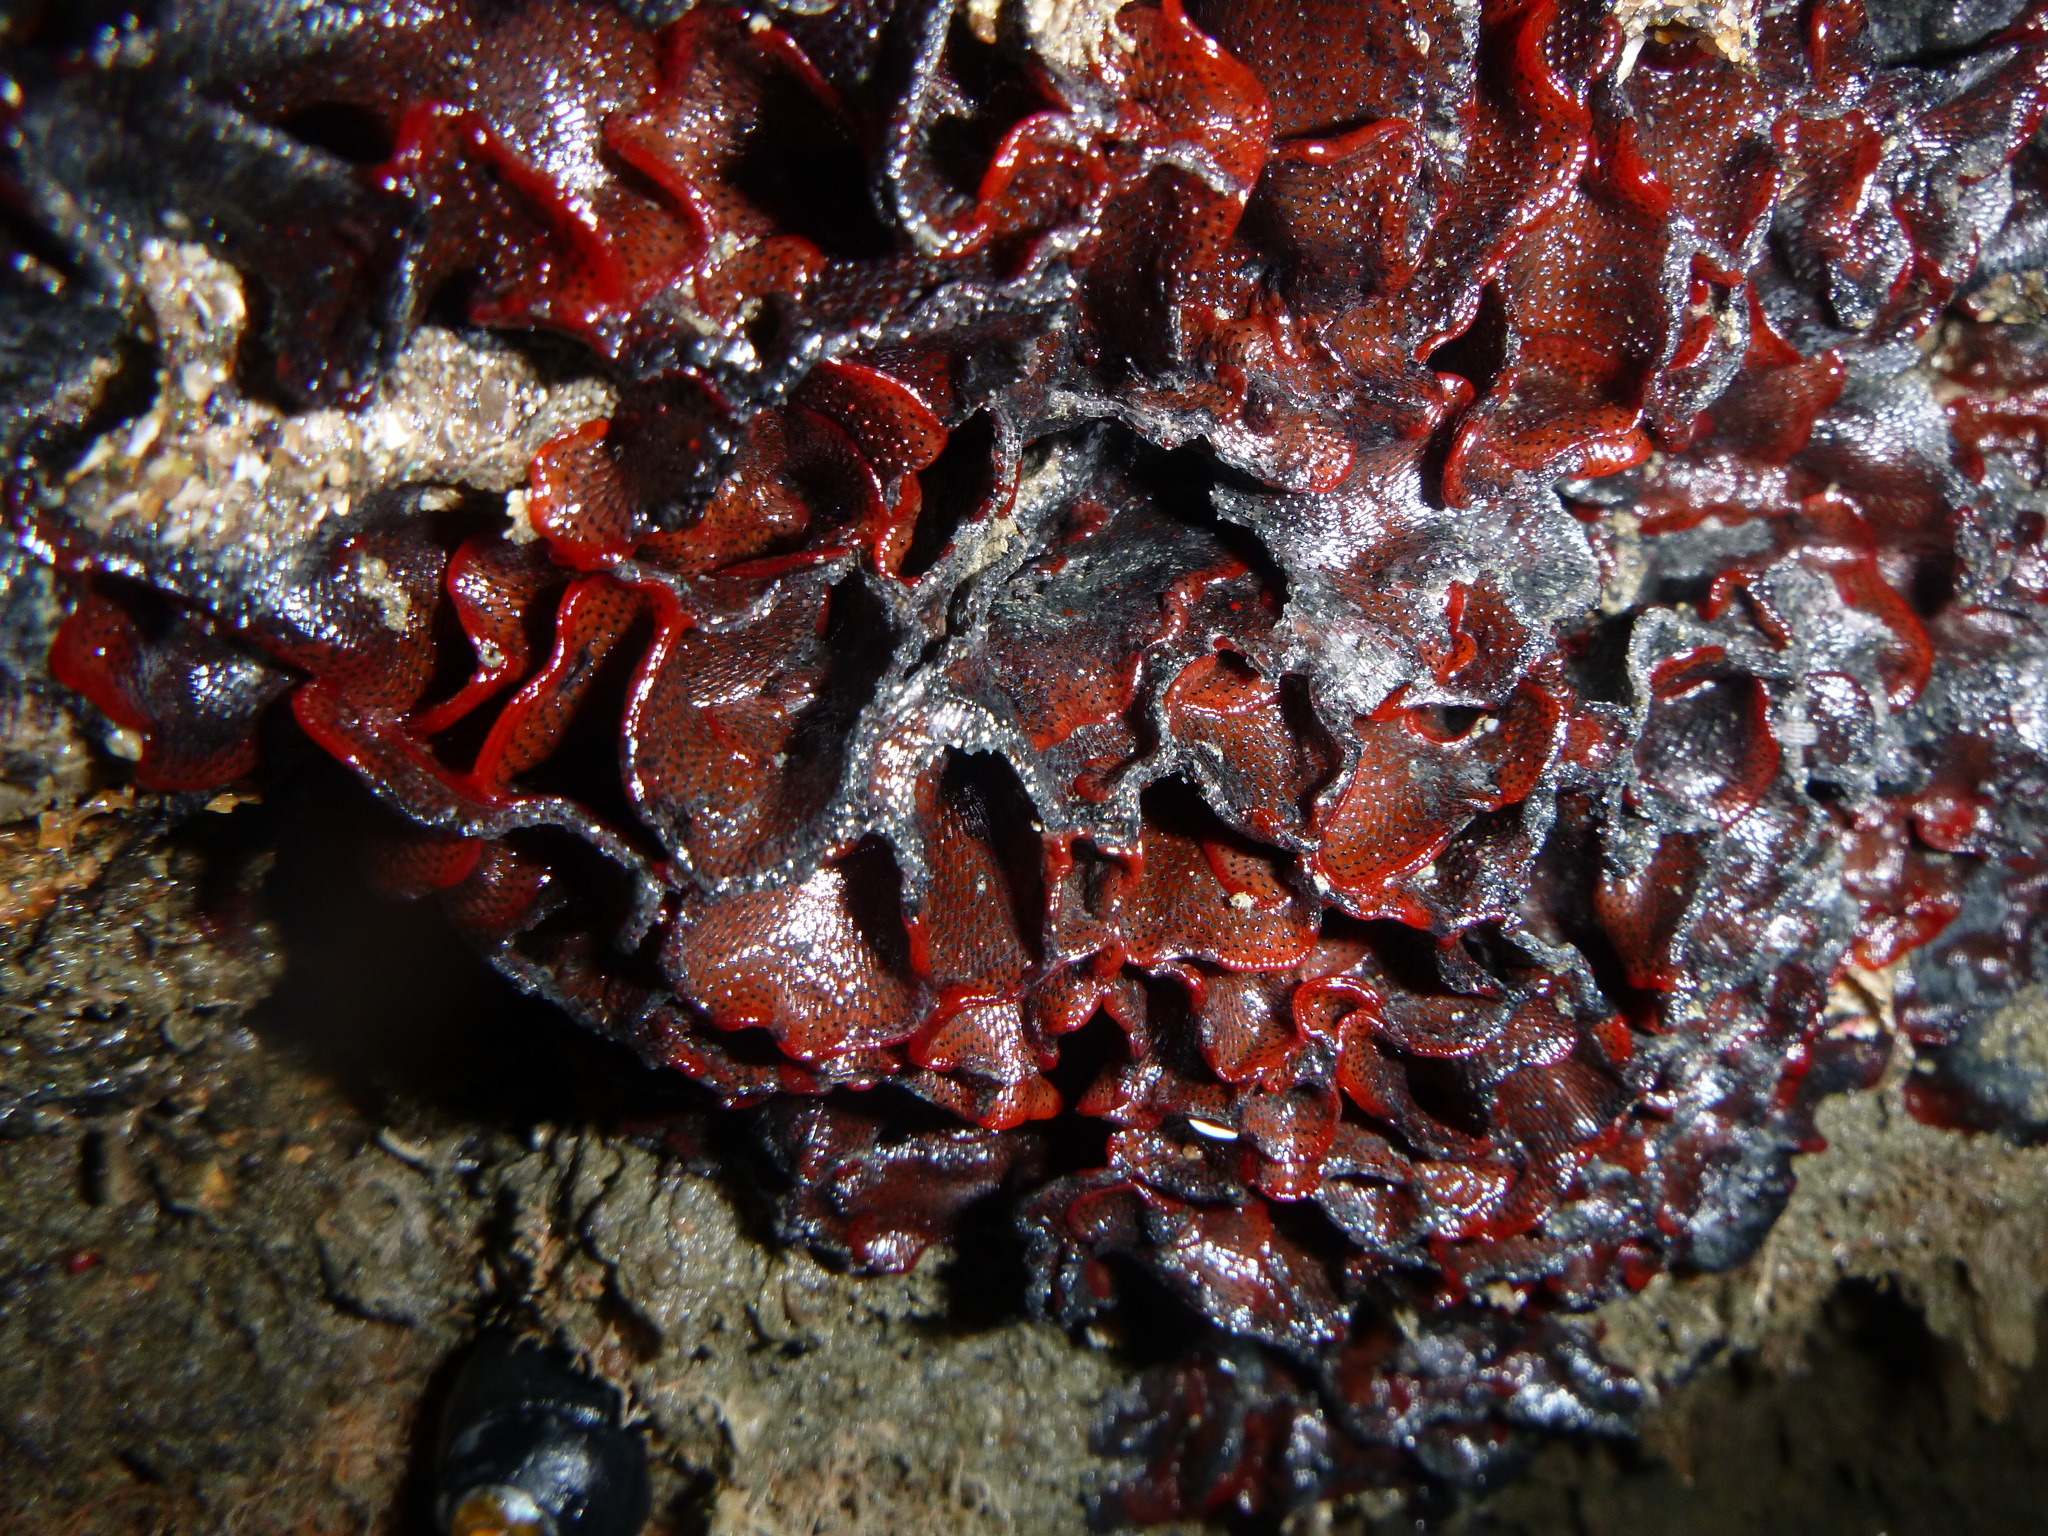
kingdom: Animalia
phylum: Bryozoa
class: Gymnolaemata
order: Cheilostomatida
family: Watersiporidae
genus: Watersipora
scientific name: Watersipora subtorquata
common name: Bryozoan
